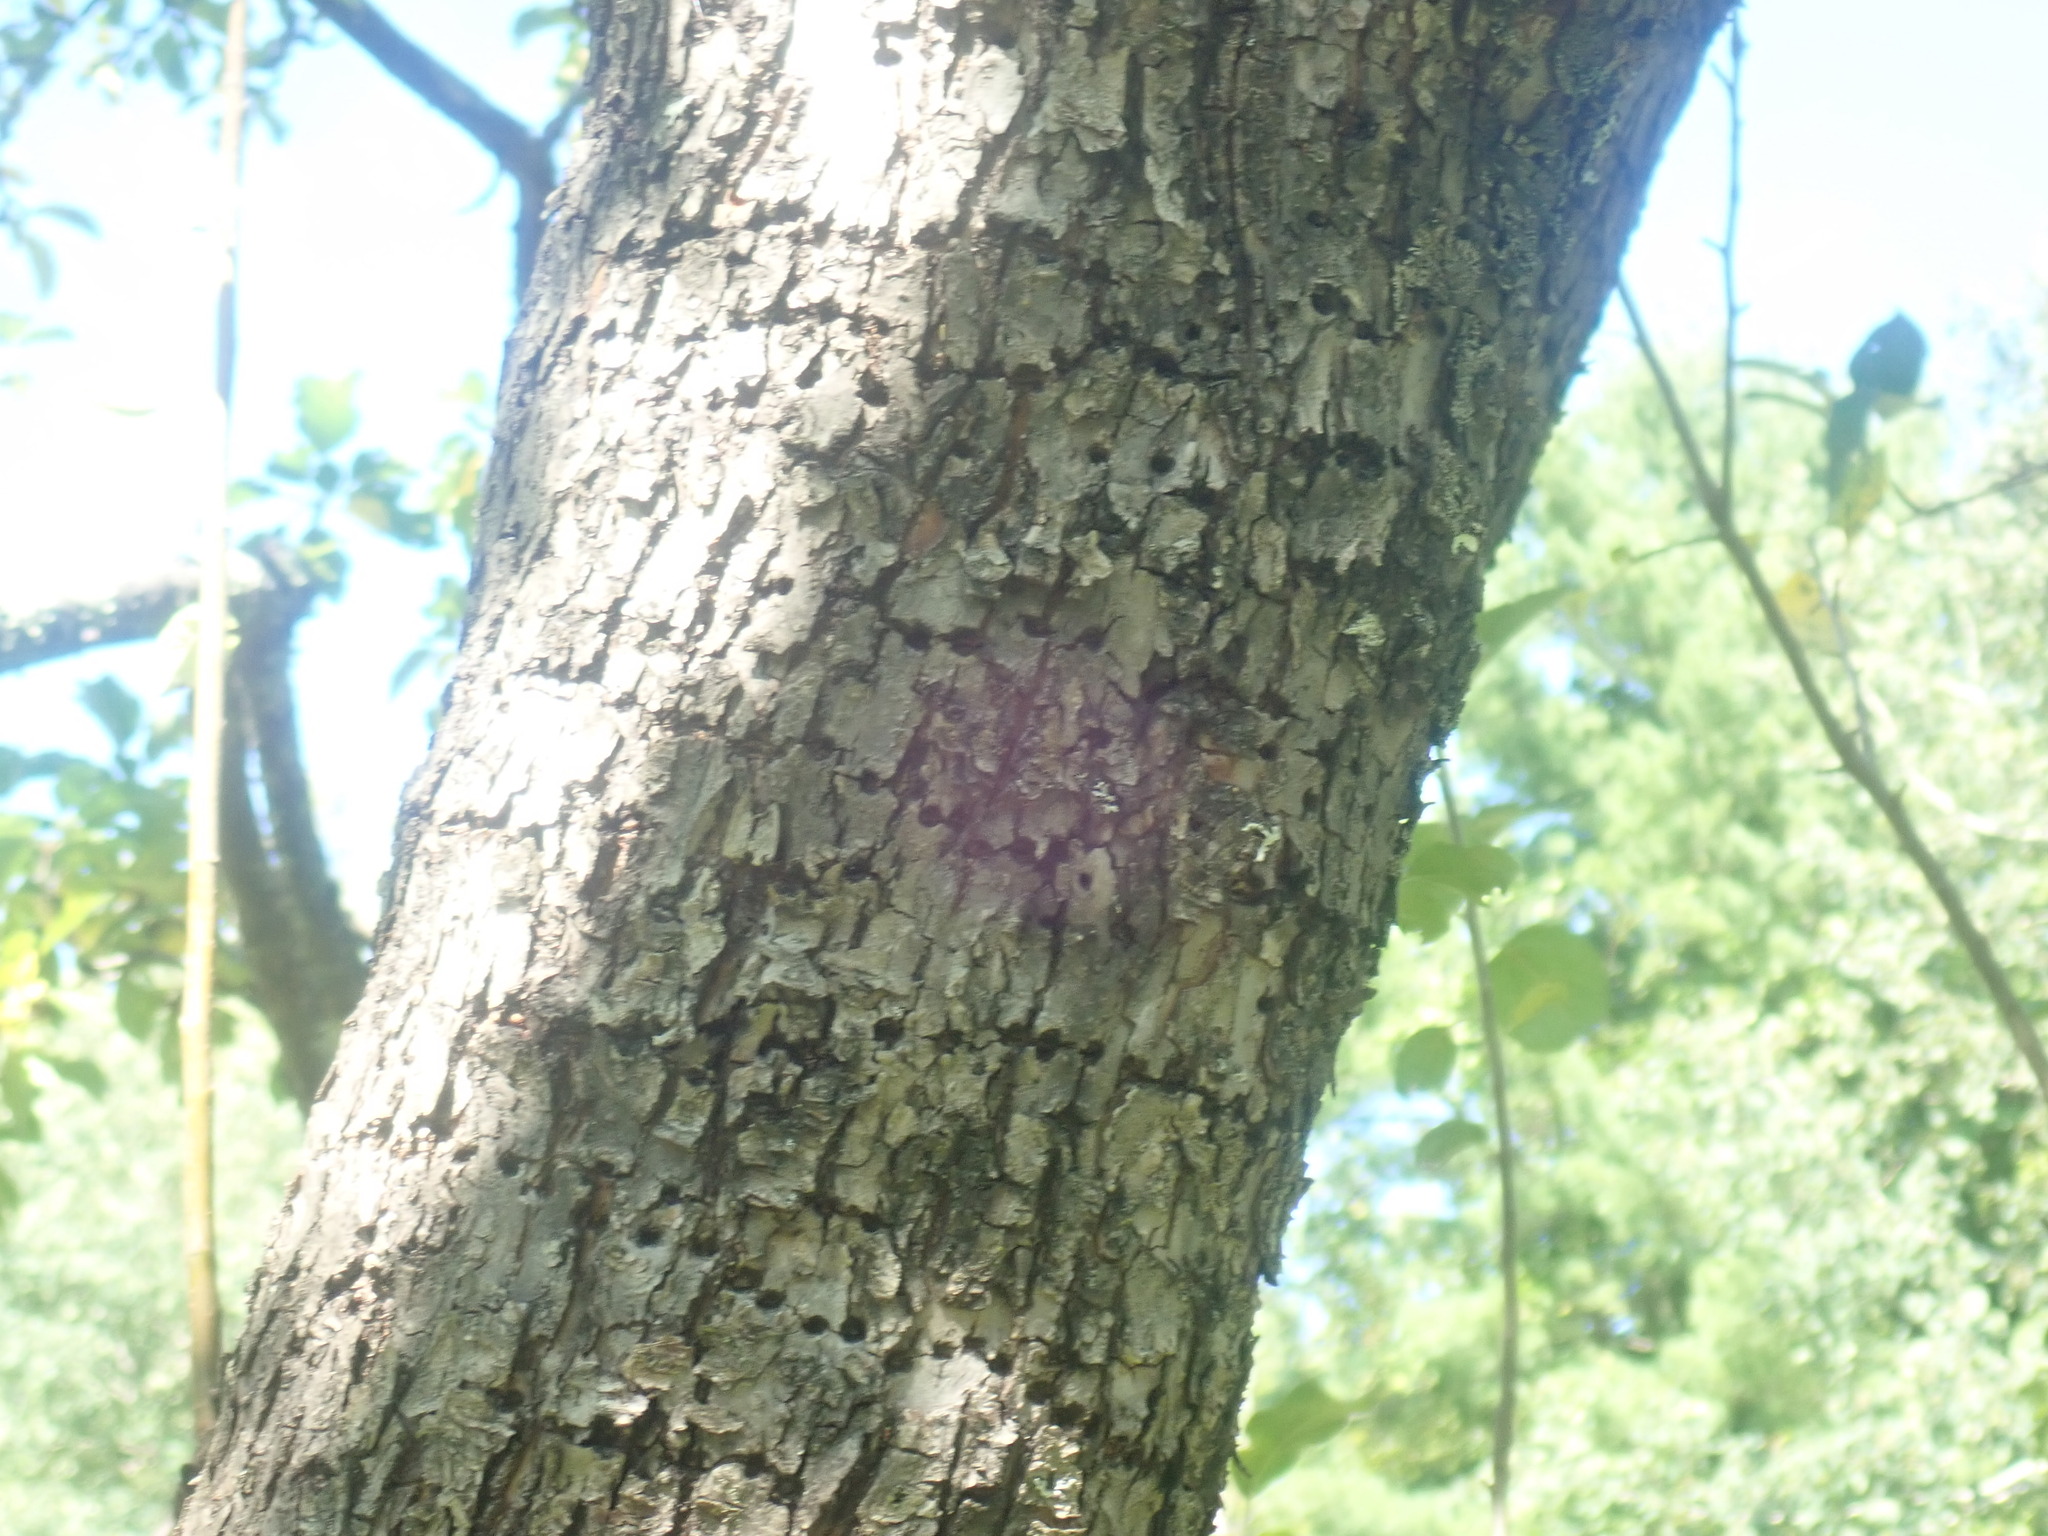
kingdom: Animalia
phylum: Chordata
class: Aves
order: Piciformes
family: Picidae
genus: Sphyrapicus
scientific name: Sphyrapicus varius
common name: Yellow-bellied sapsucker
